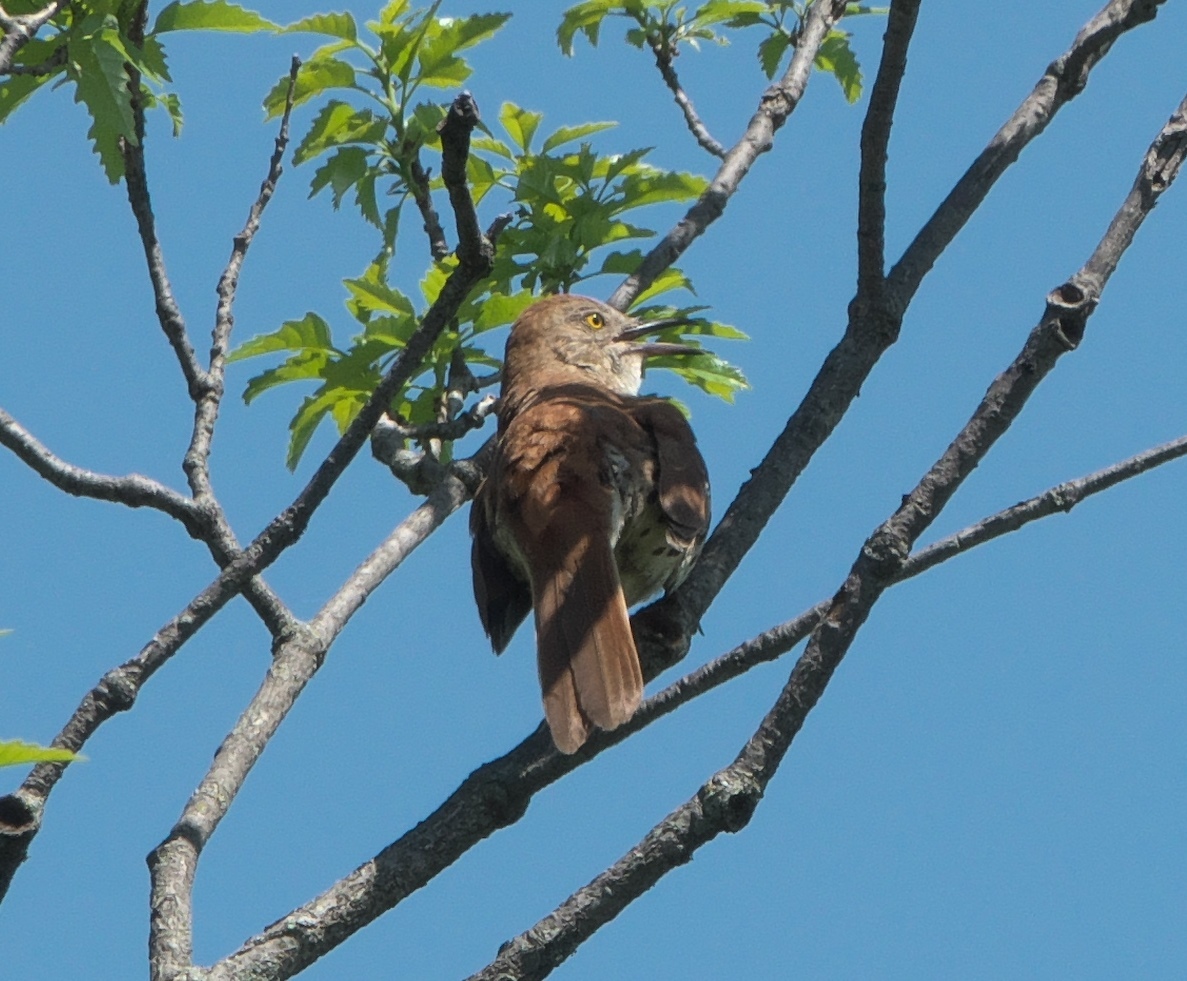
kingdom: Animalia
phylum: Chordata
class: Aves
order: Passeriformes
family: Mimidae
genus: Toxostoma
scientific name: Toxostoma rufum
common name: Brown thrasher
